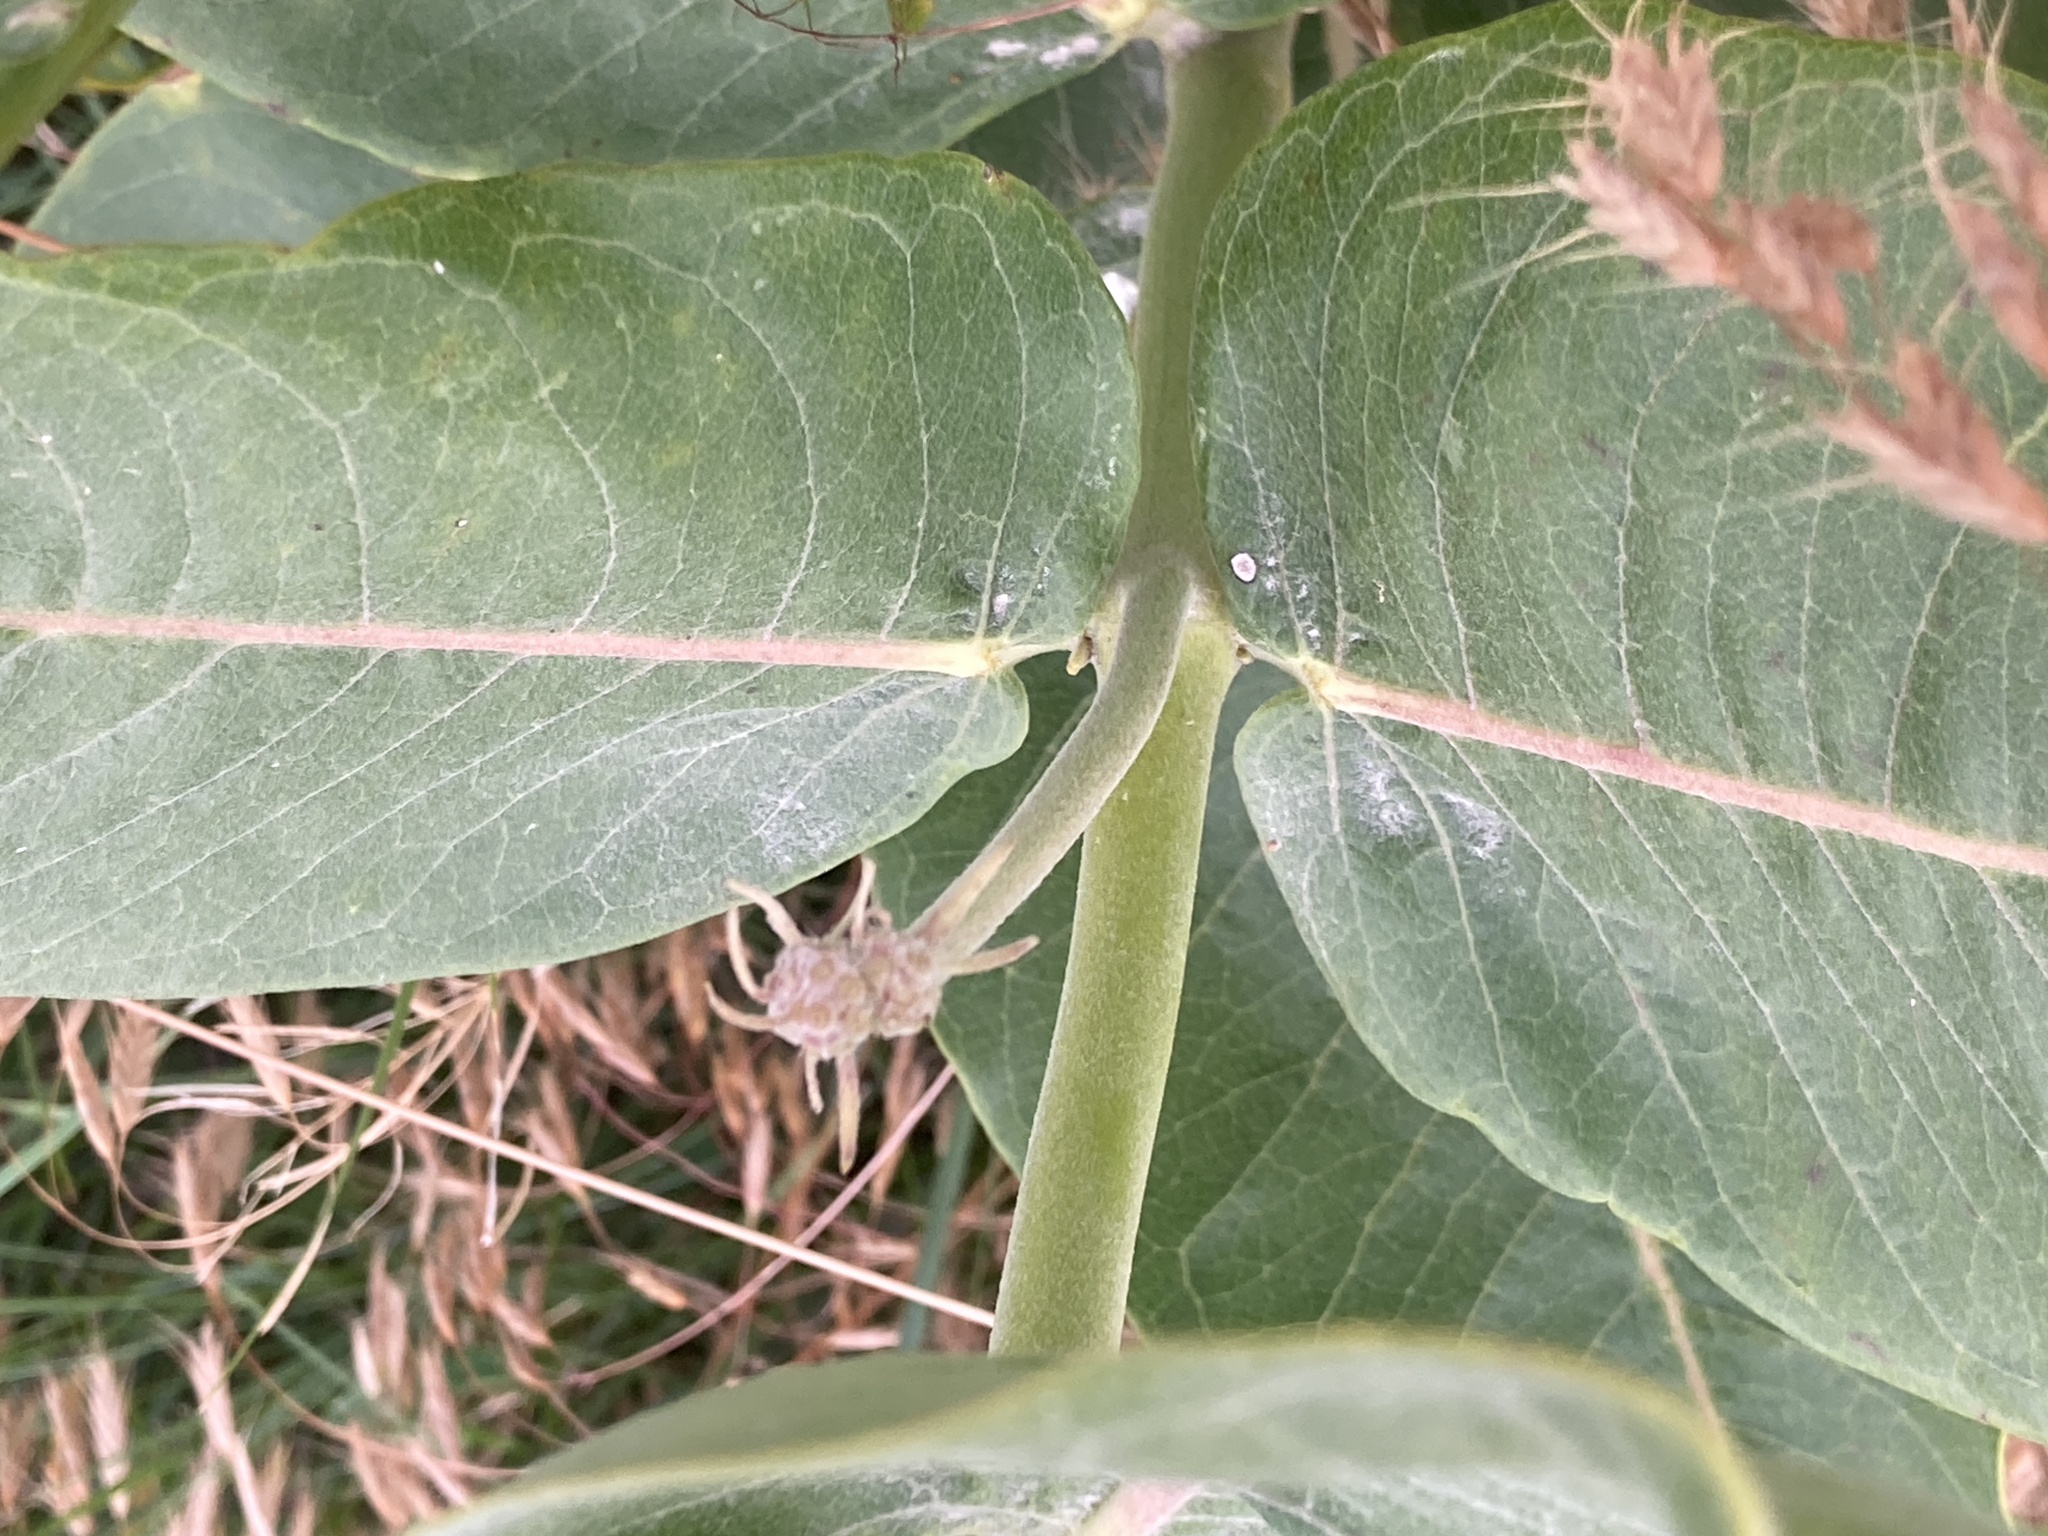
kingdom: Plantae
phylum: Tracheophyta
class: Magnoliopsida
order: Gentianales
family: Apocynaceae
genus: Asclepias
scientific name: Asclepias speciosa
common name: Showy milkweed
